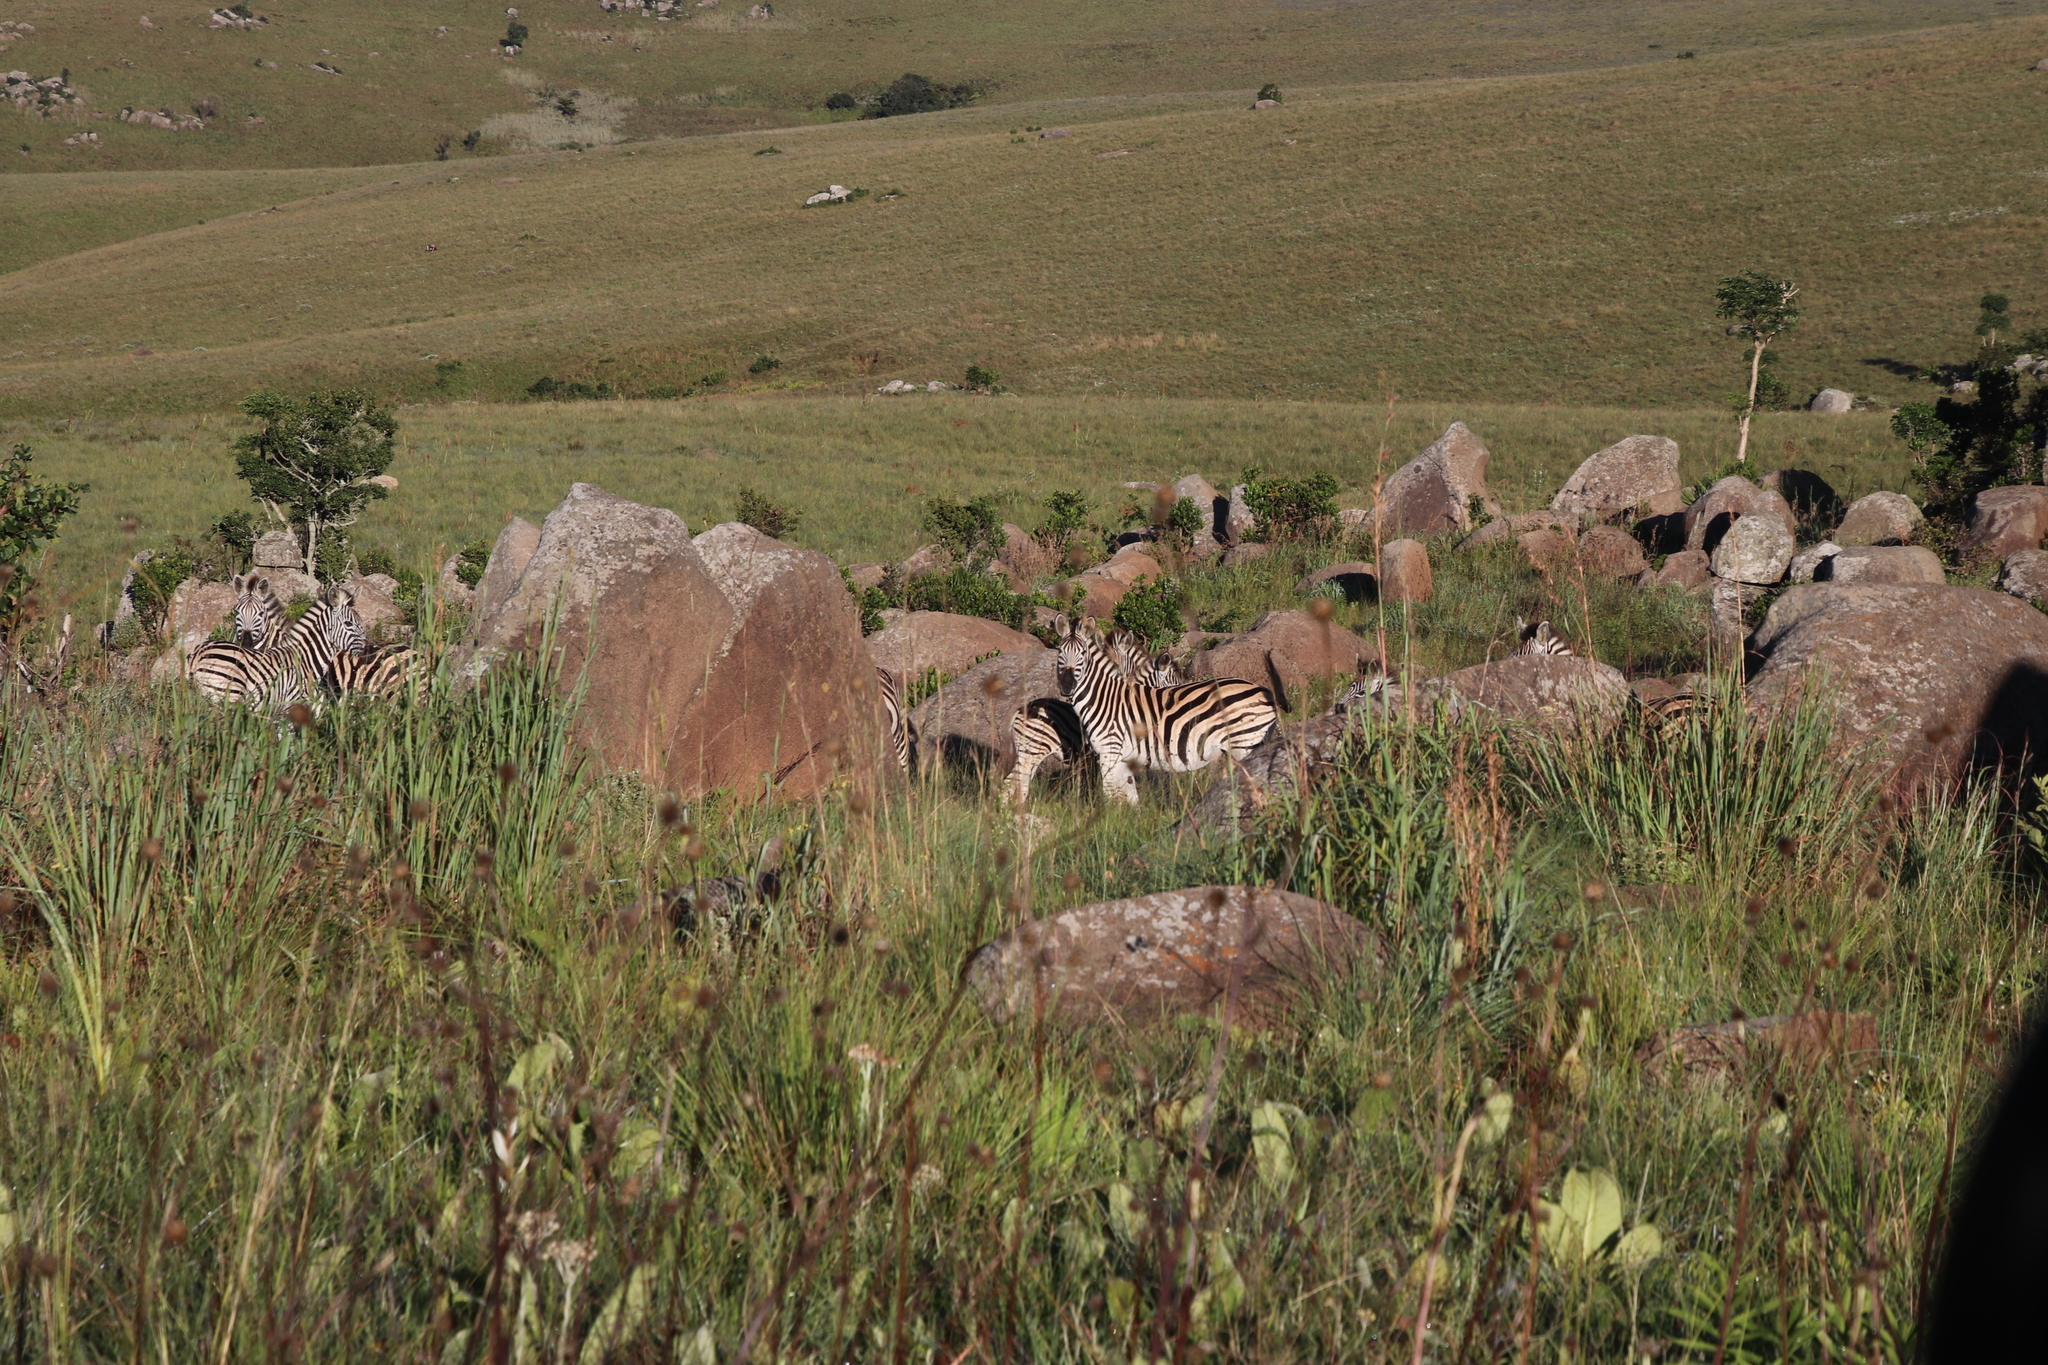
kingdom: Animalia
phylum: Chordata
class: Mammalia
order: Perissodactyla
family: Equidae
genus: Equus
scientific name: Equus quagga
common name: Plains zebra
